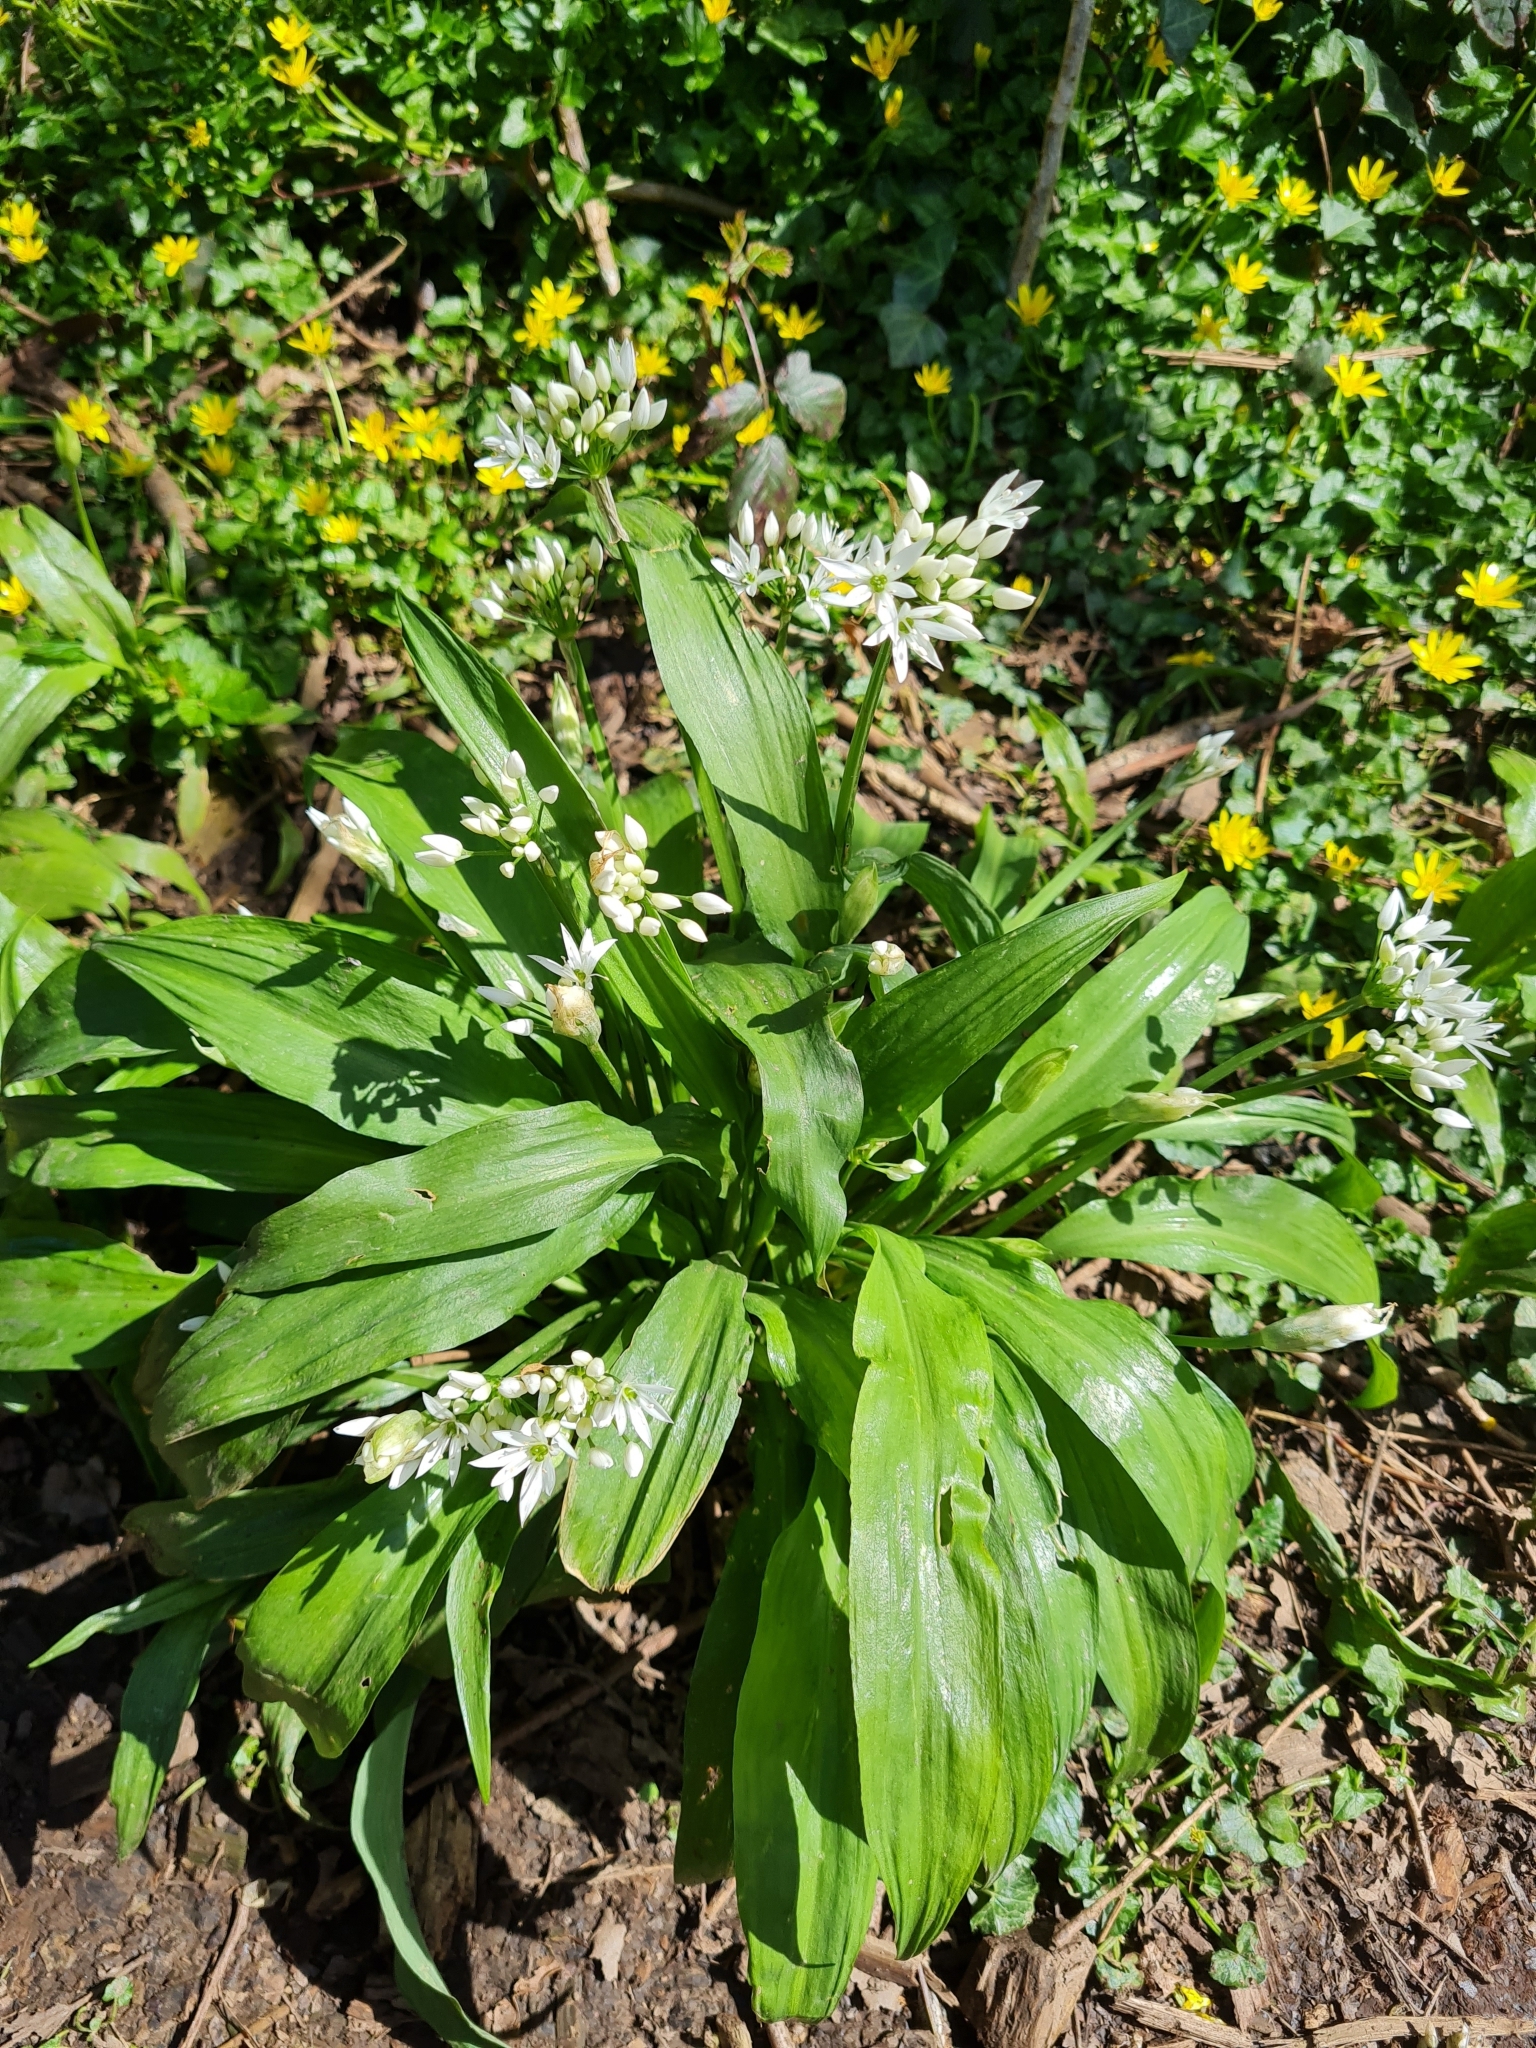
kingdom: Plantae
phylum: Tracheophyta
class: Liliopsida
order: Asparagales
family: Amaryllidaceae
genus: Allium
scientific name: Allium ursinum
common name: Ramsons
